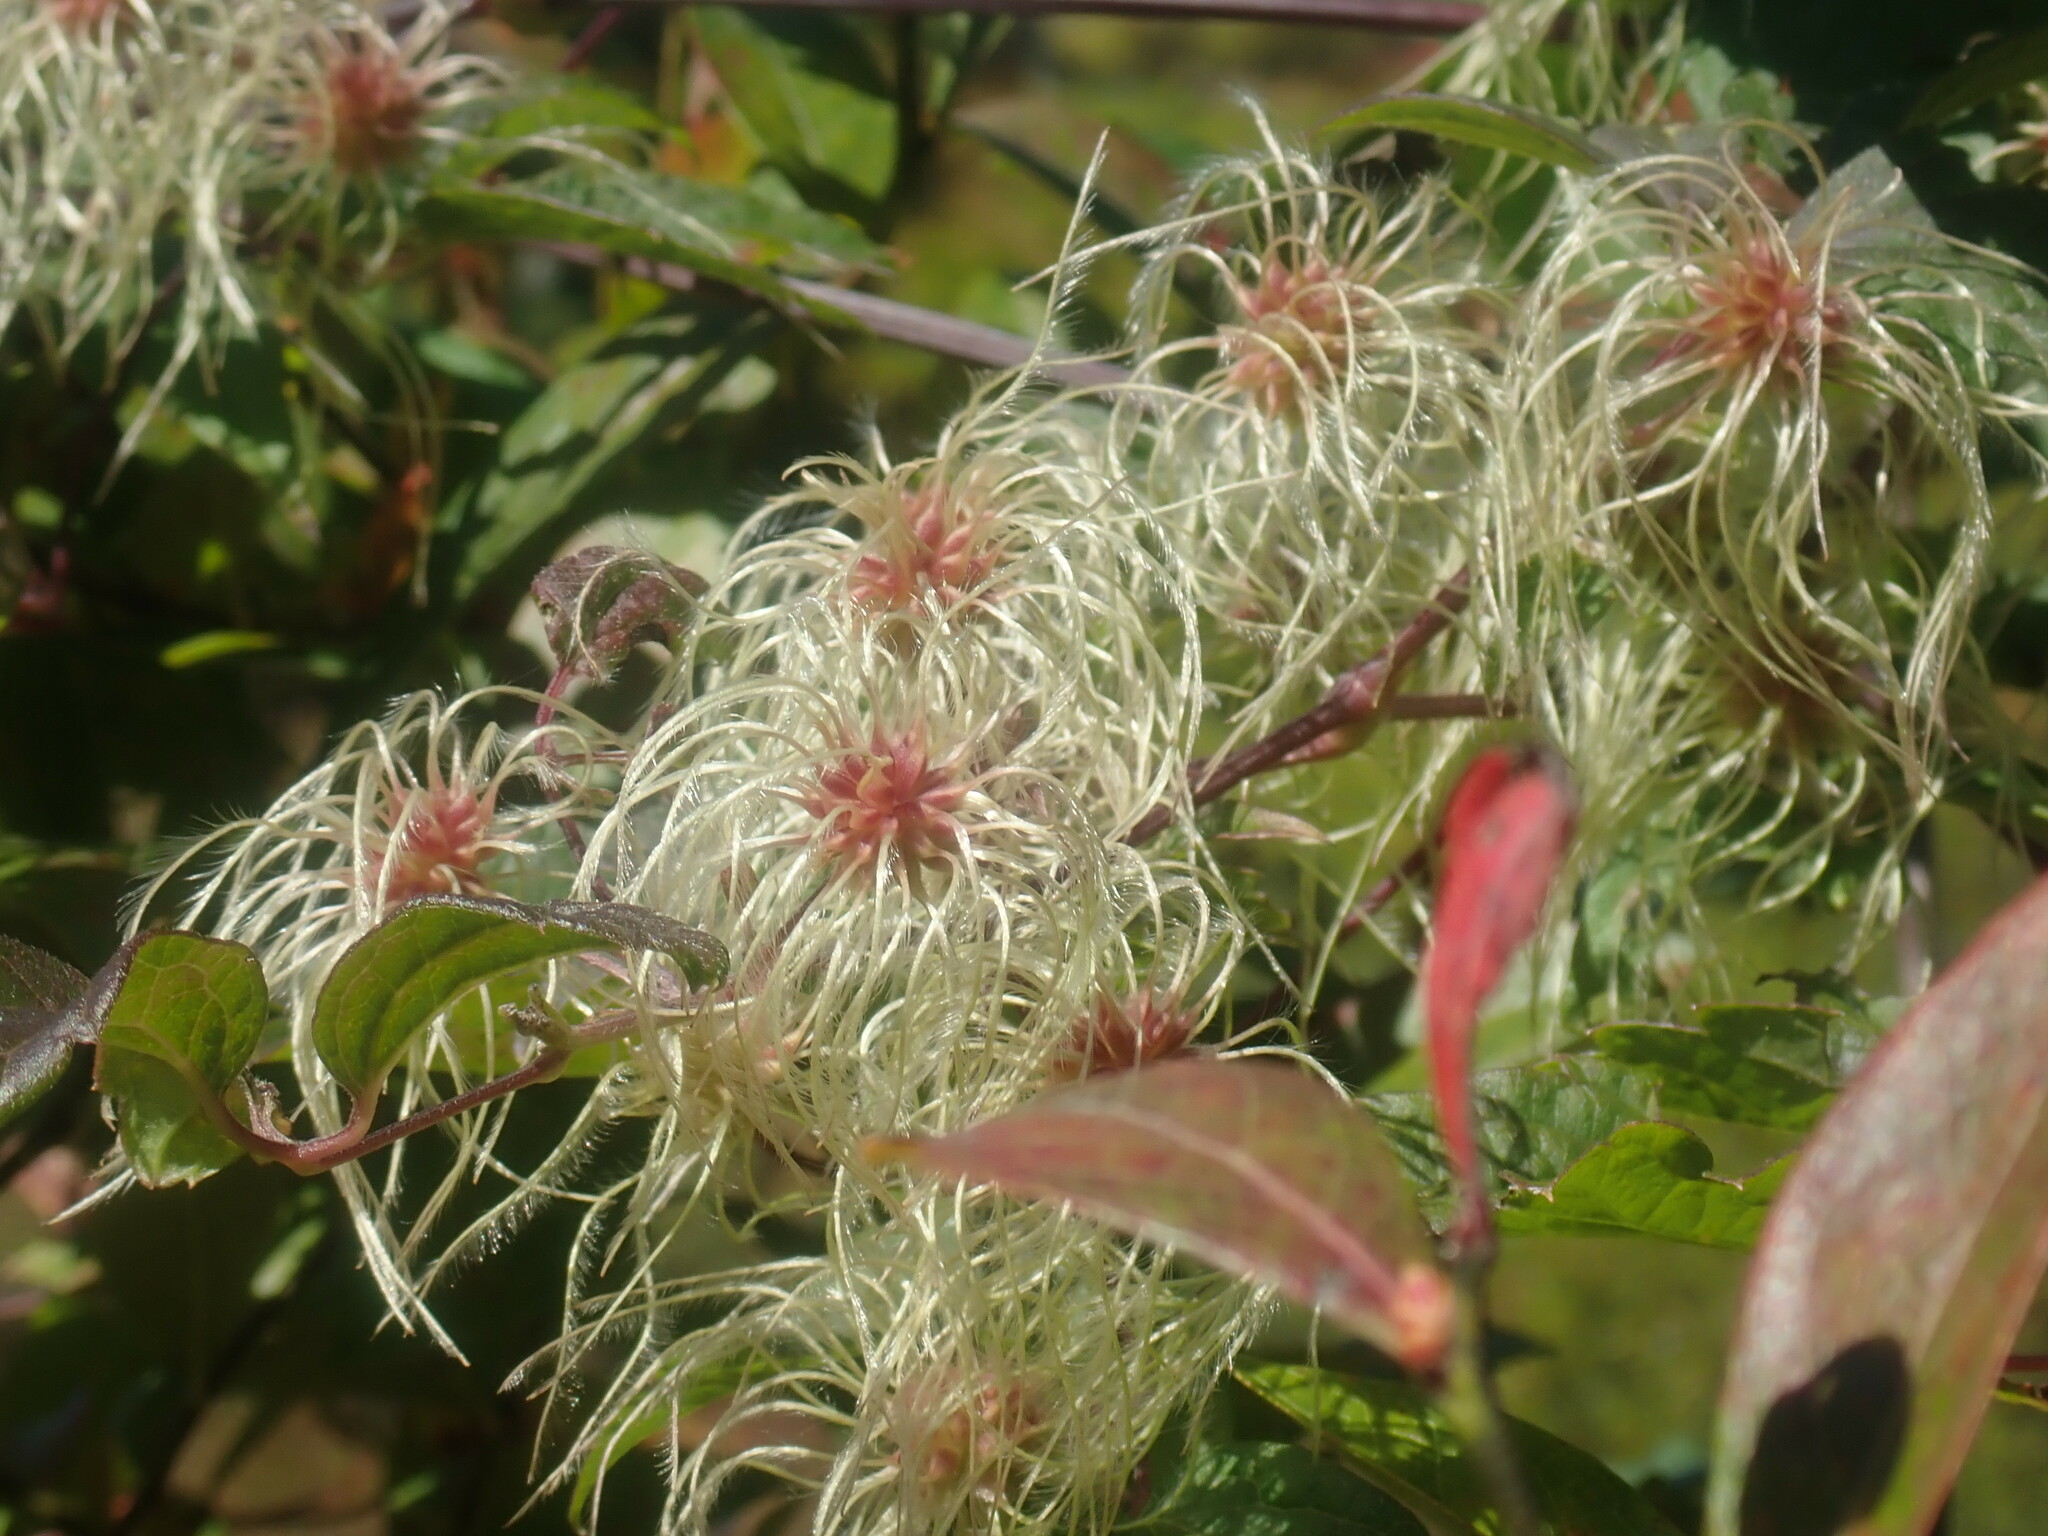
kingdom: Plantae
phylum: Tracheophyta
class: Magnoliopsida
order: Ranunculales
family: Ranunculaceae
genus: Clematis
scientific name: Clematis virginiana
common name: Virgin's-bower
